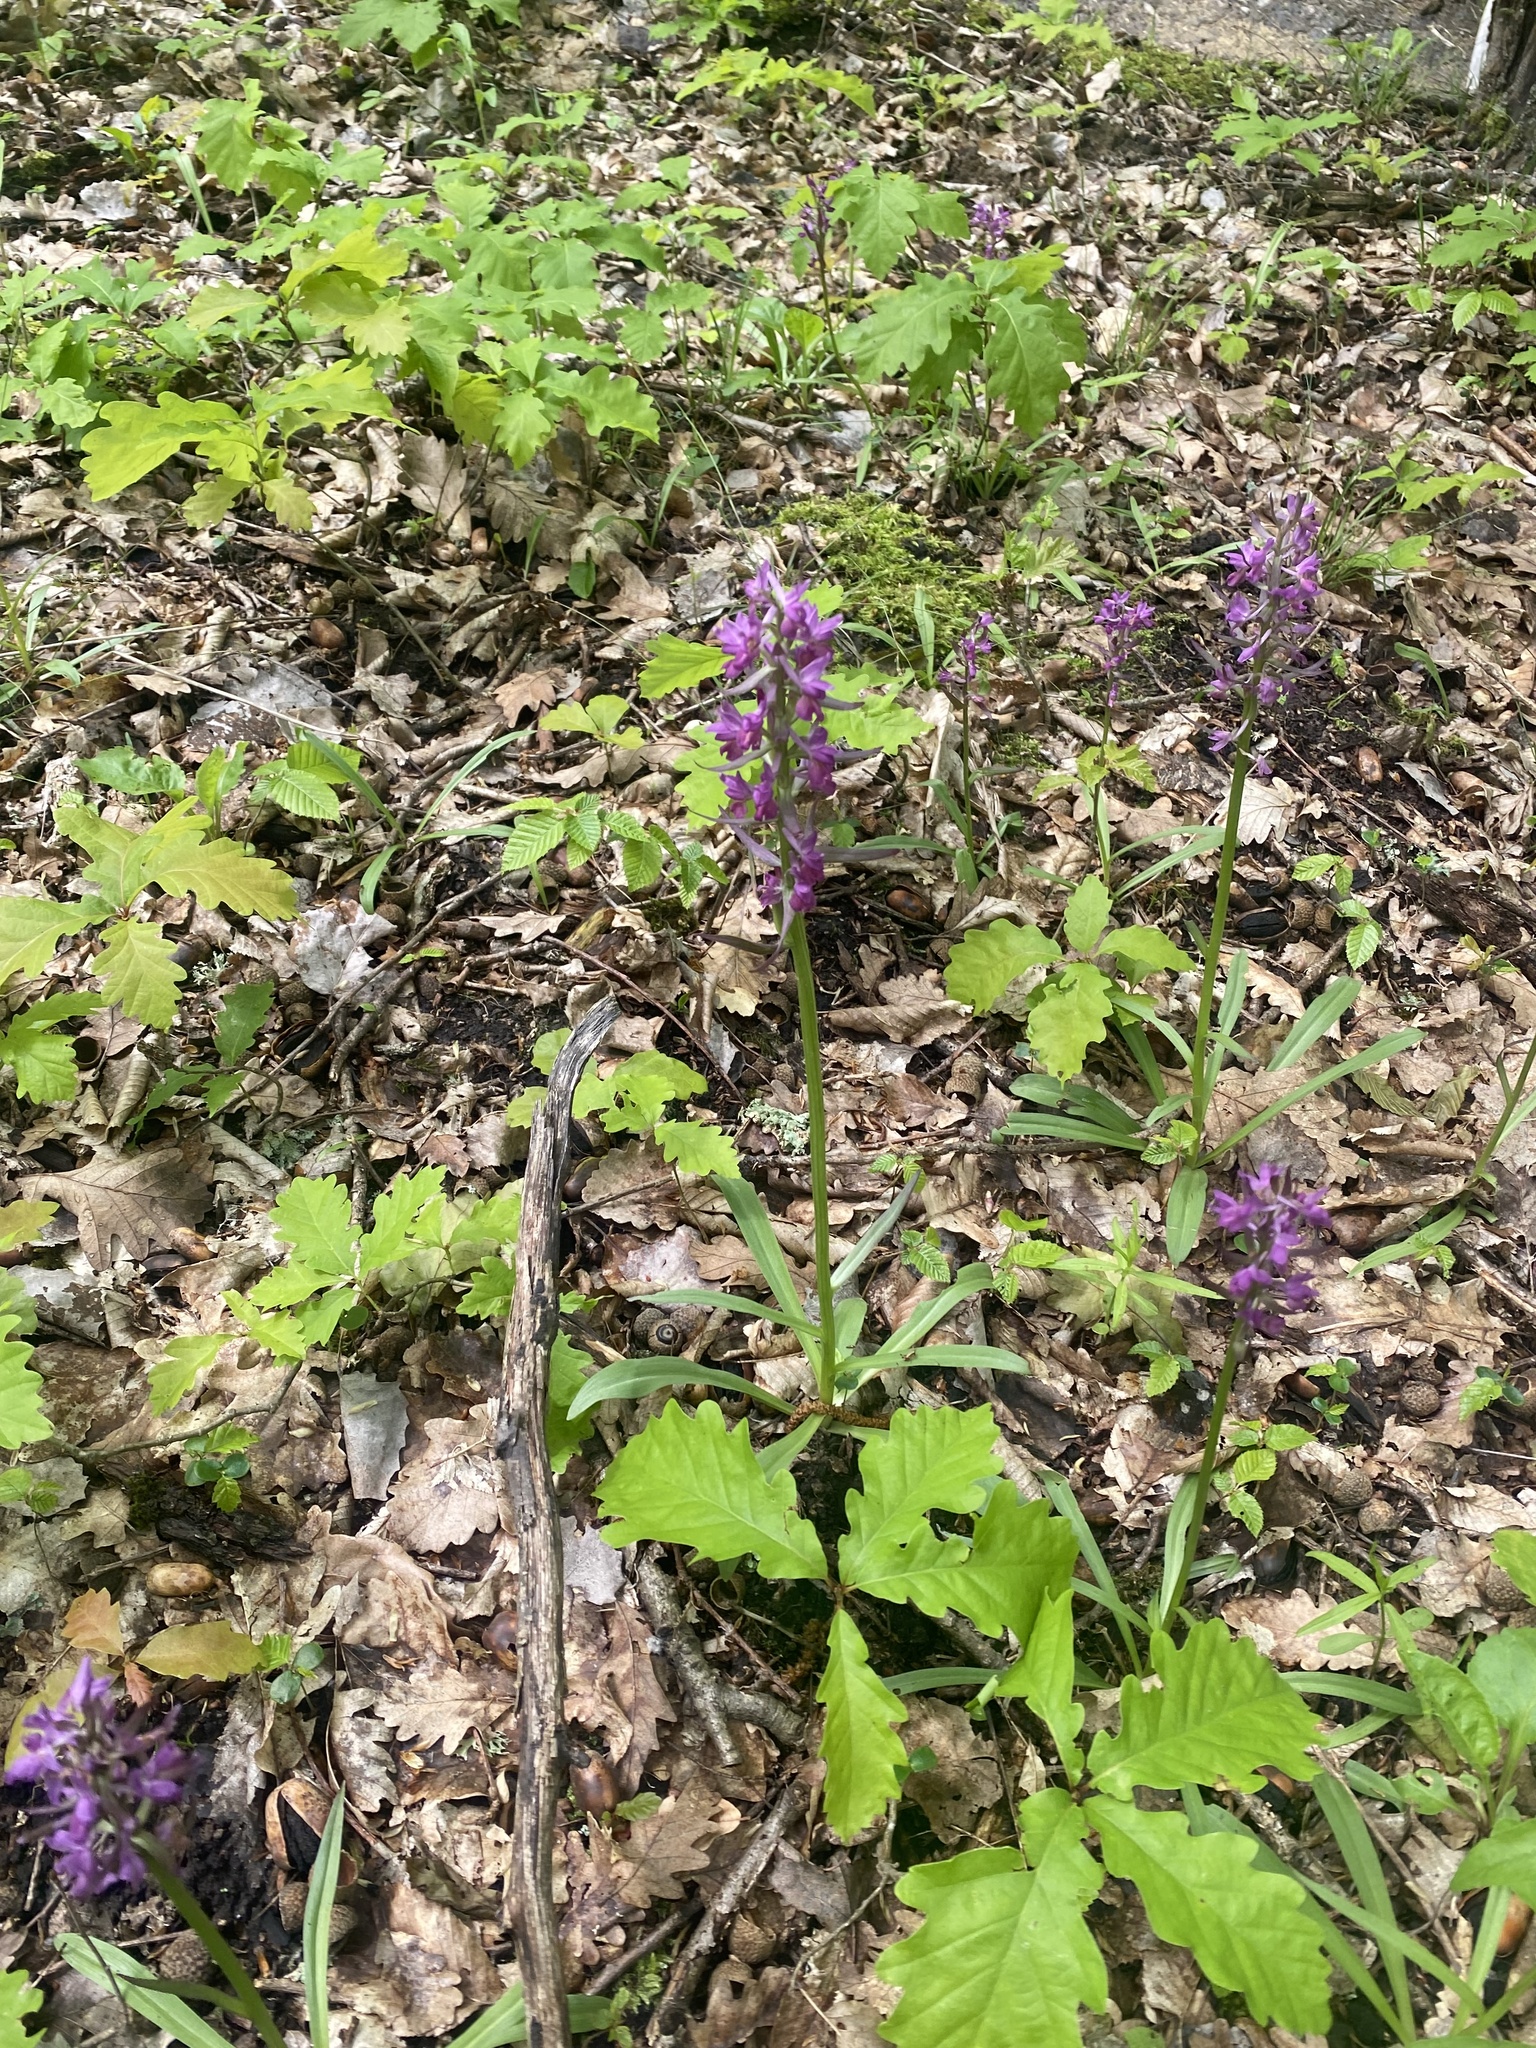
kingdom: Plantae
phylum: Tracheophyta
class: Liliopsida
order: Asparagales
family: Orchidaceae
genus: Dactylorhiza
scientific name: Dactylorhiza romana
